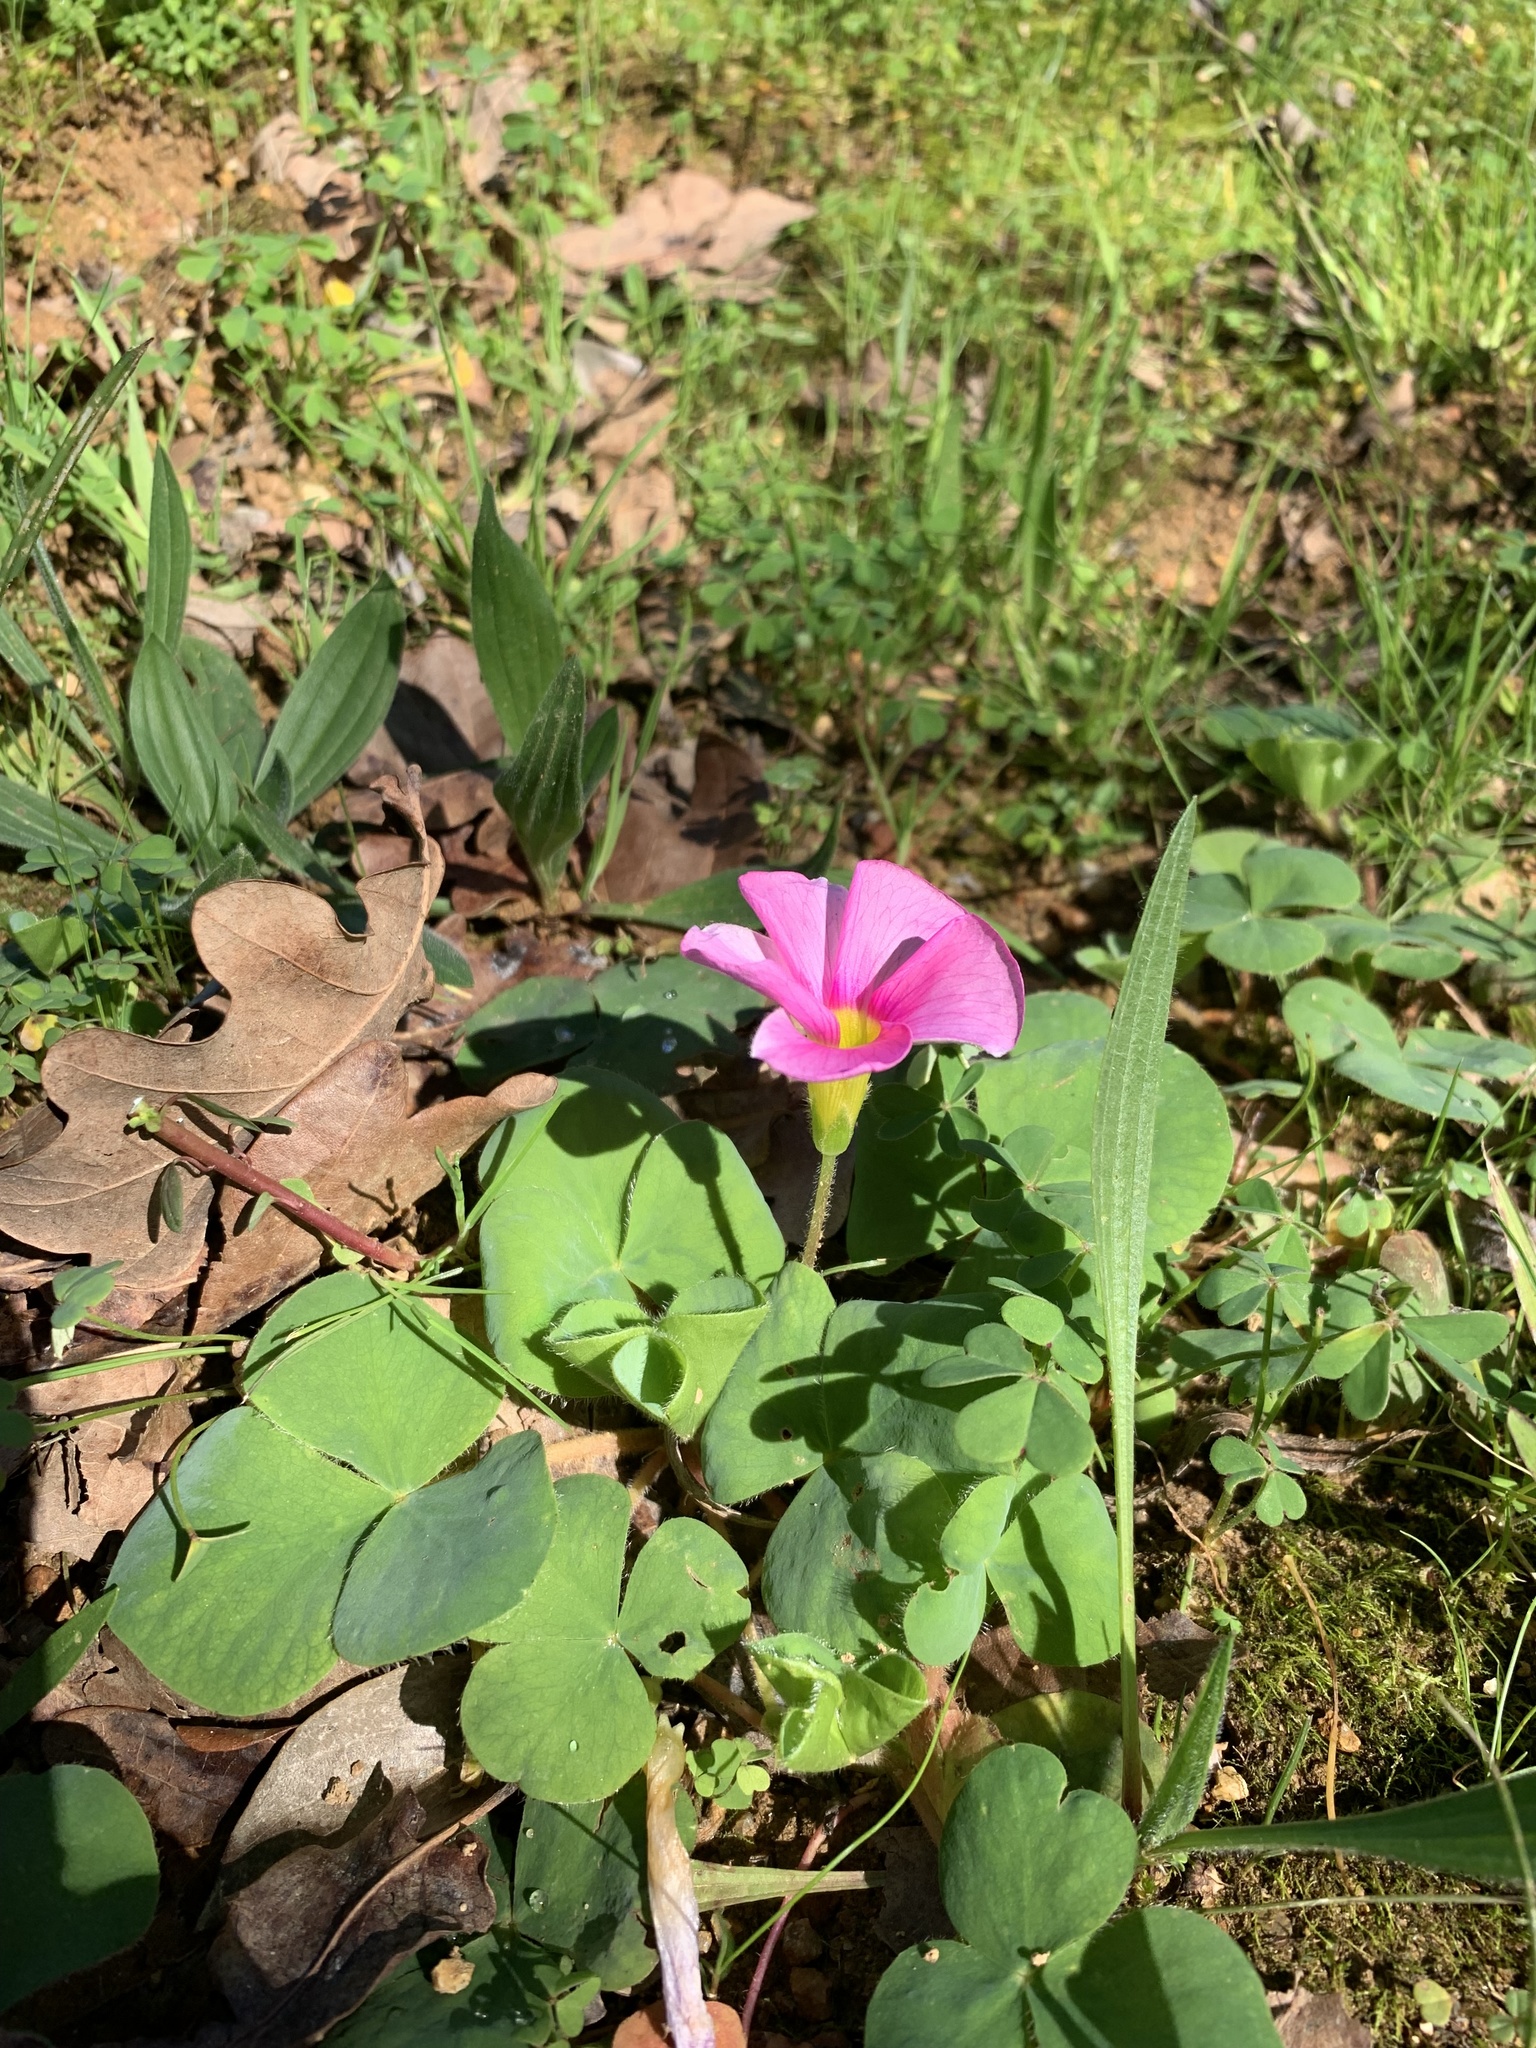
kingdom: Plantae
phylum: Tracheophyta
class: Magnoliopsida
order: Oxalidales
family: Oxalidaceae
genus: Oxalis
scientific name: Oxalis purpurea
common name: Purple woodsorrel
